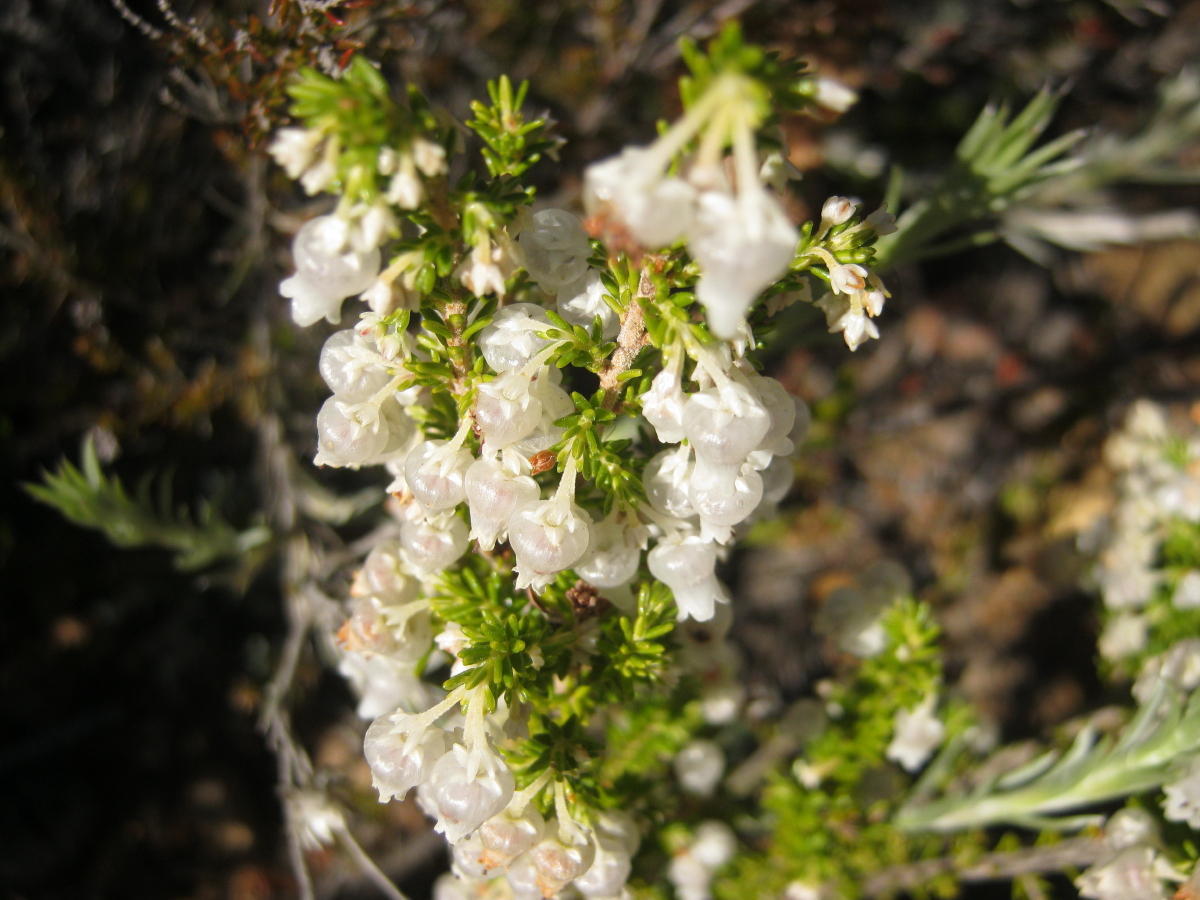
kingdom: Plantae
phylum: Tracheophyta
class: Magnoliopsida
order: Ericales
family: Ericaceae
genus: Erica
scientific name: Erica glomiflora
